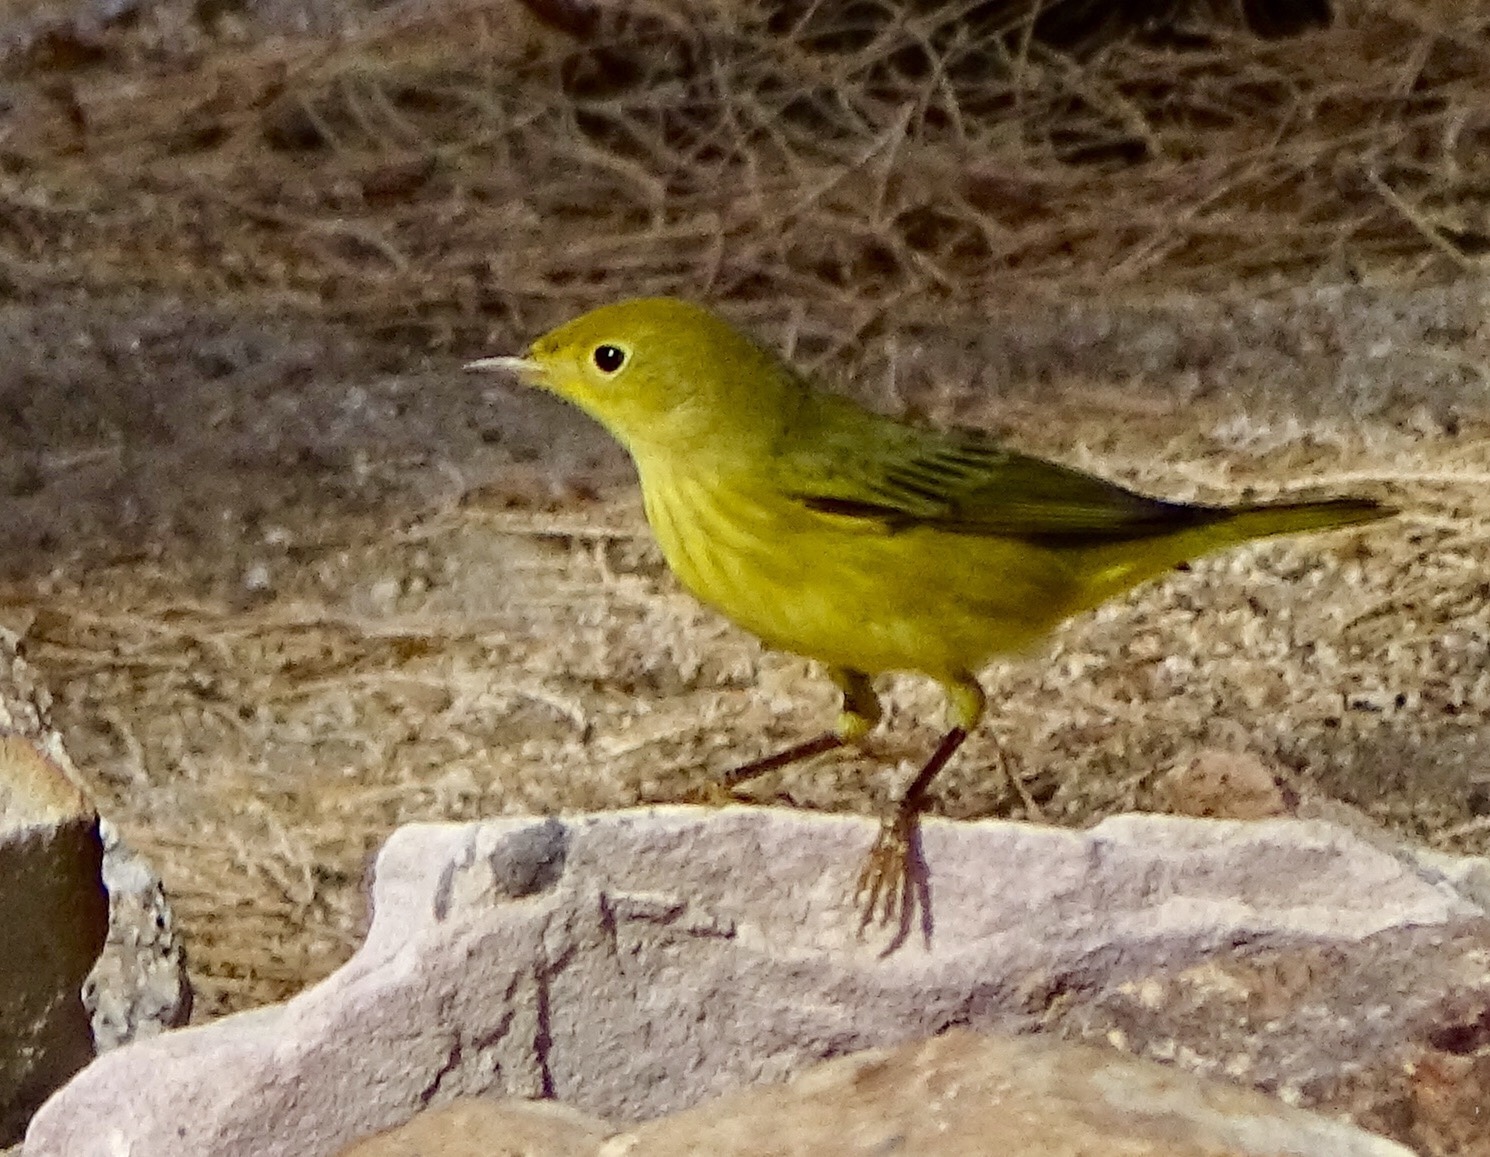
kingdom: Animalia
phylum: Chordata
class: Aves
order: Passeriformes
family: Parulidae
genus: Setophaga
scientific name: Setophaga petechia
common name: Yellow warbler
